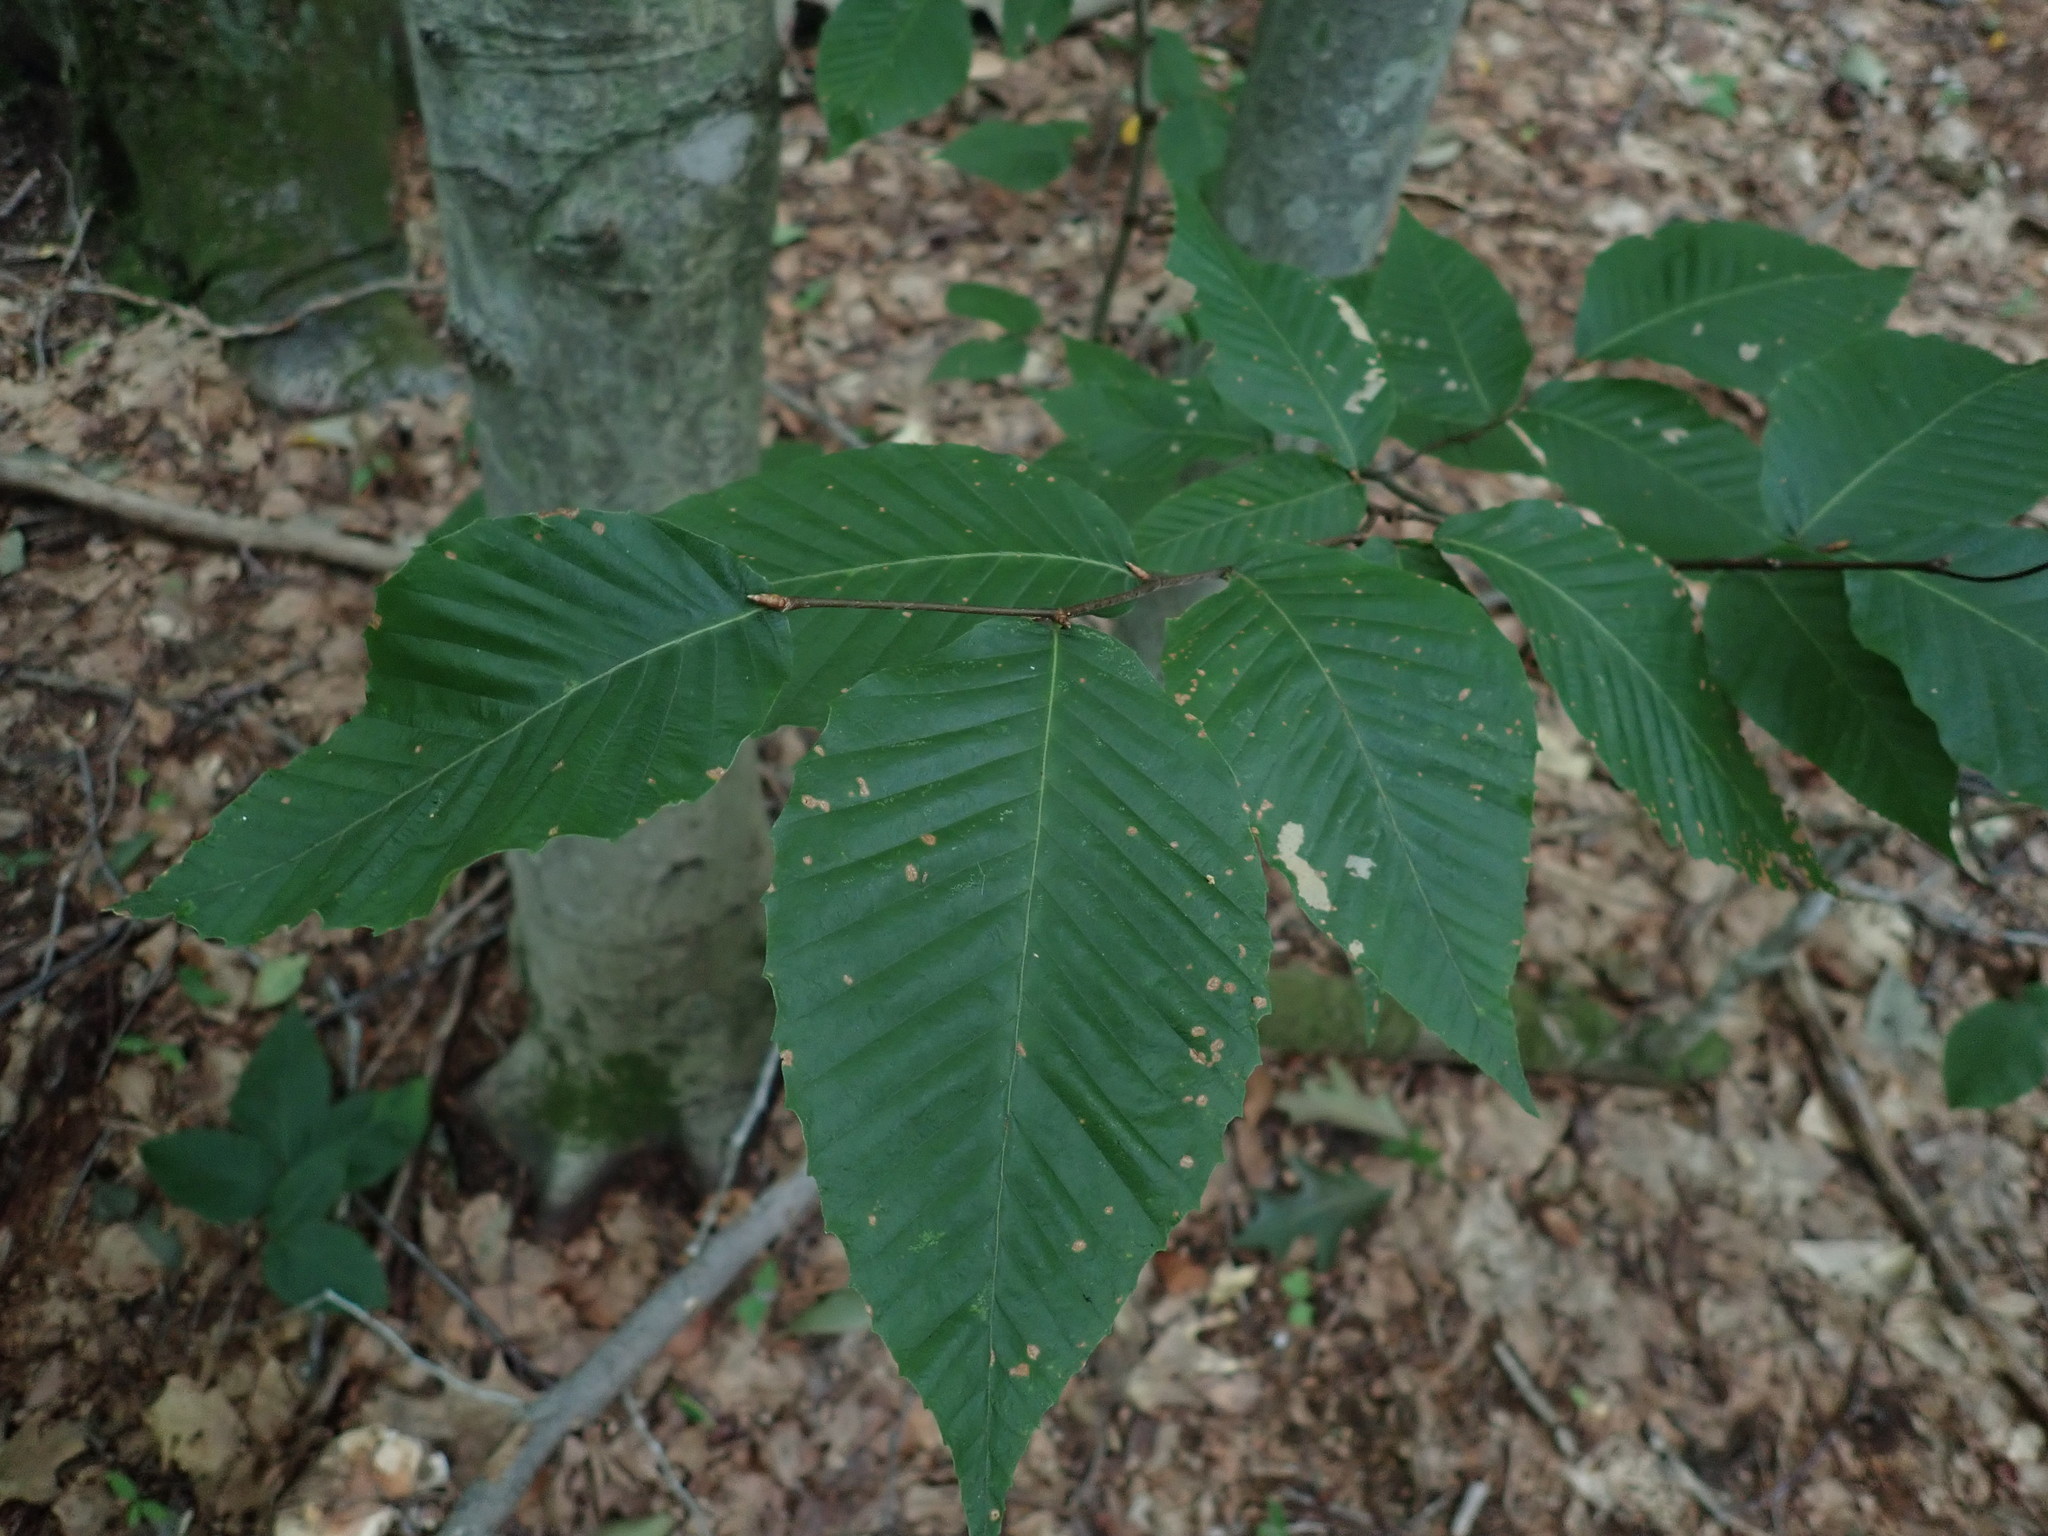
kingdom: Plantae
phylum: Tracheophyta
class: Magnoliopsida
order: Fagales
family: Fagaceae
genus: Fagus
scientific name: Fagus grandifolia
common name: American beech
